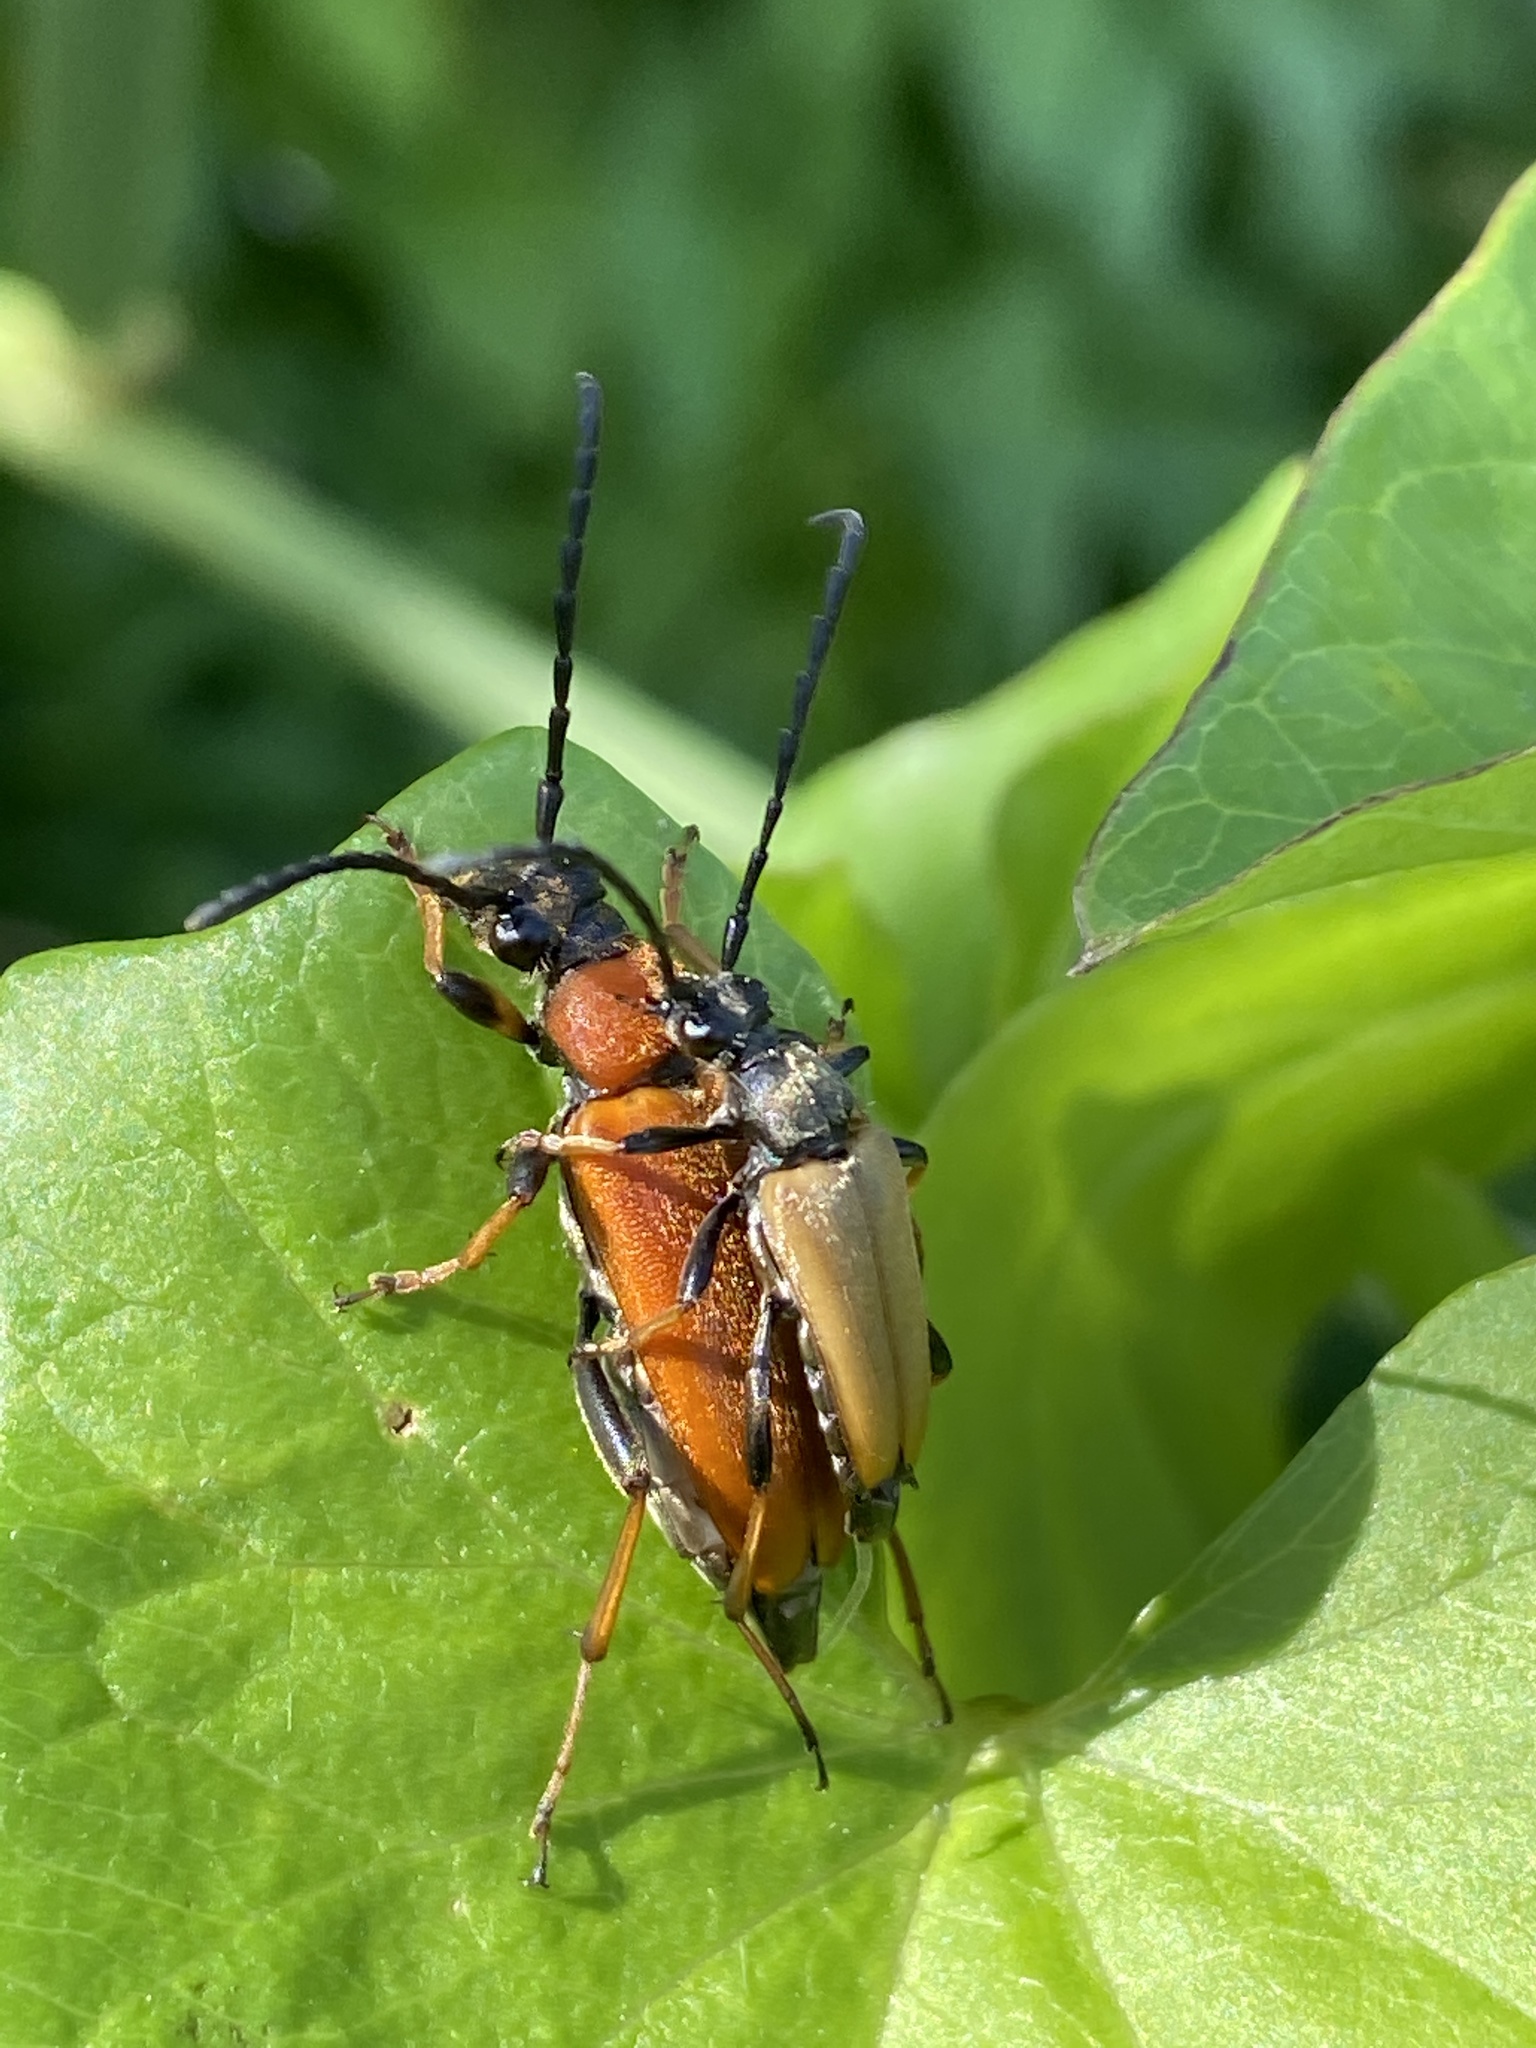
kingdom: Animalia
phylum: Arthropoda
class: Insecta
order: Coleoptera
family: Cerambycidae
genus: Stictoleptura
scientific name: Stictoleptura rubra
